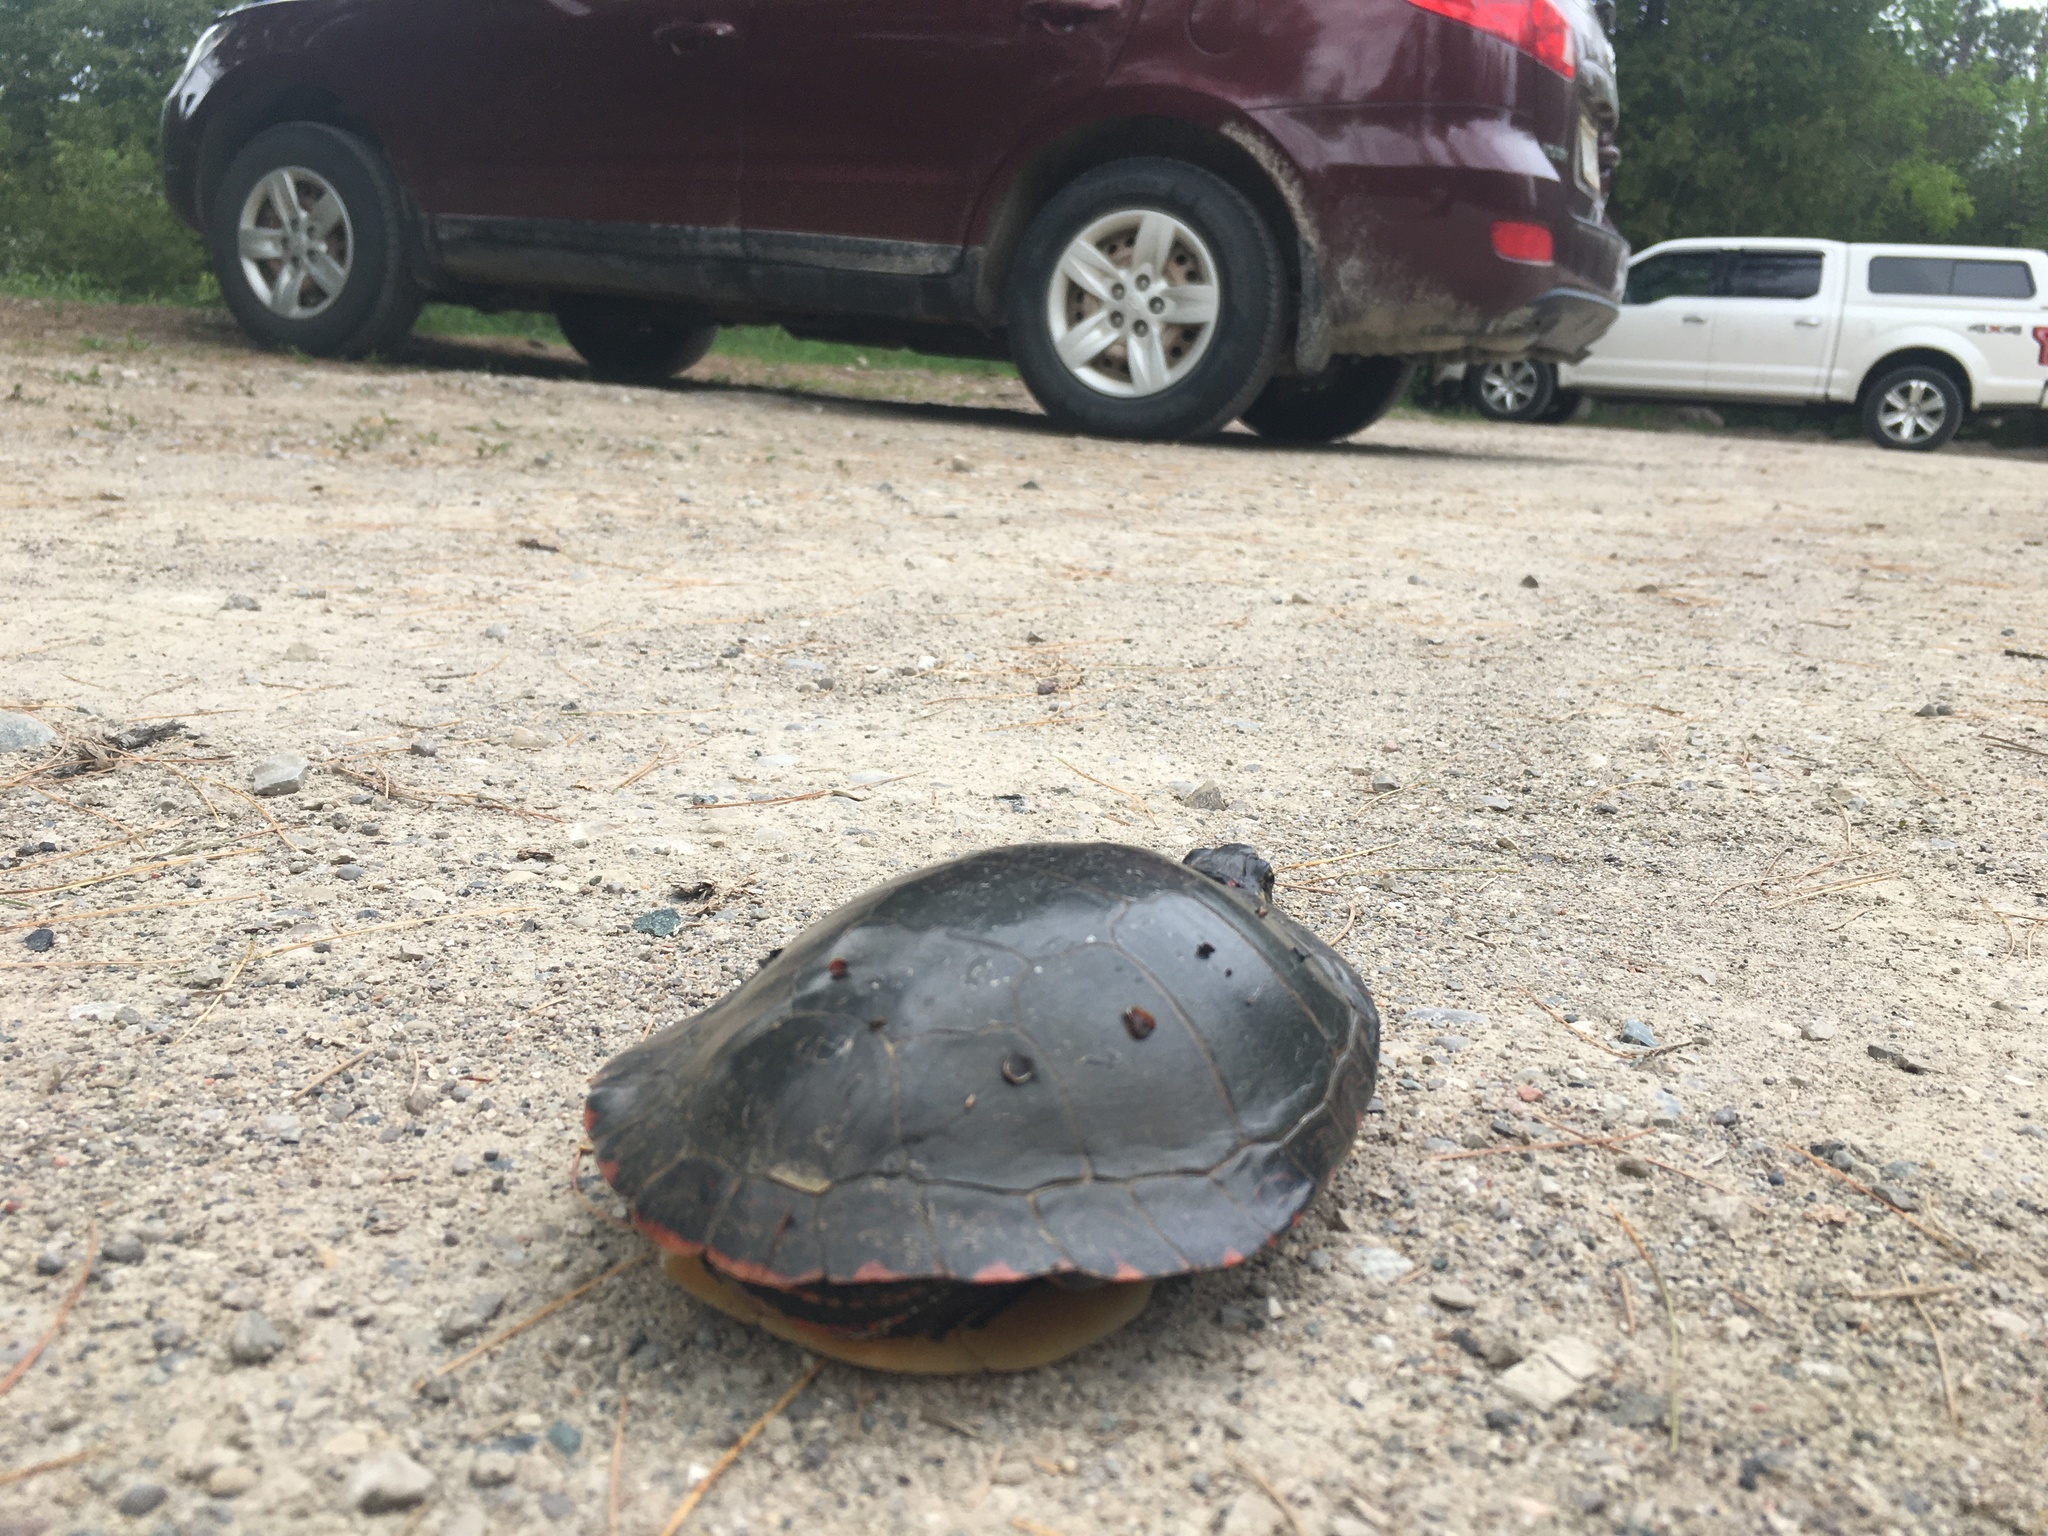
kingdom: Animalia
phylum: Chordata
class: Testudines
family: Emydidae
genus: Chrysemys
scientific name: Chrysemys picta
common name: Painted turtle
